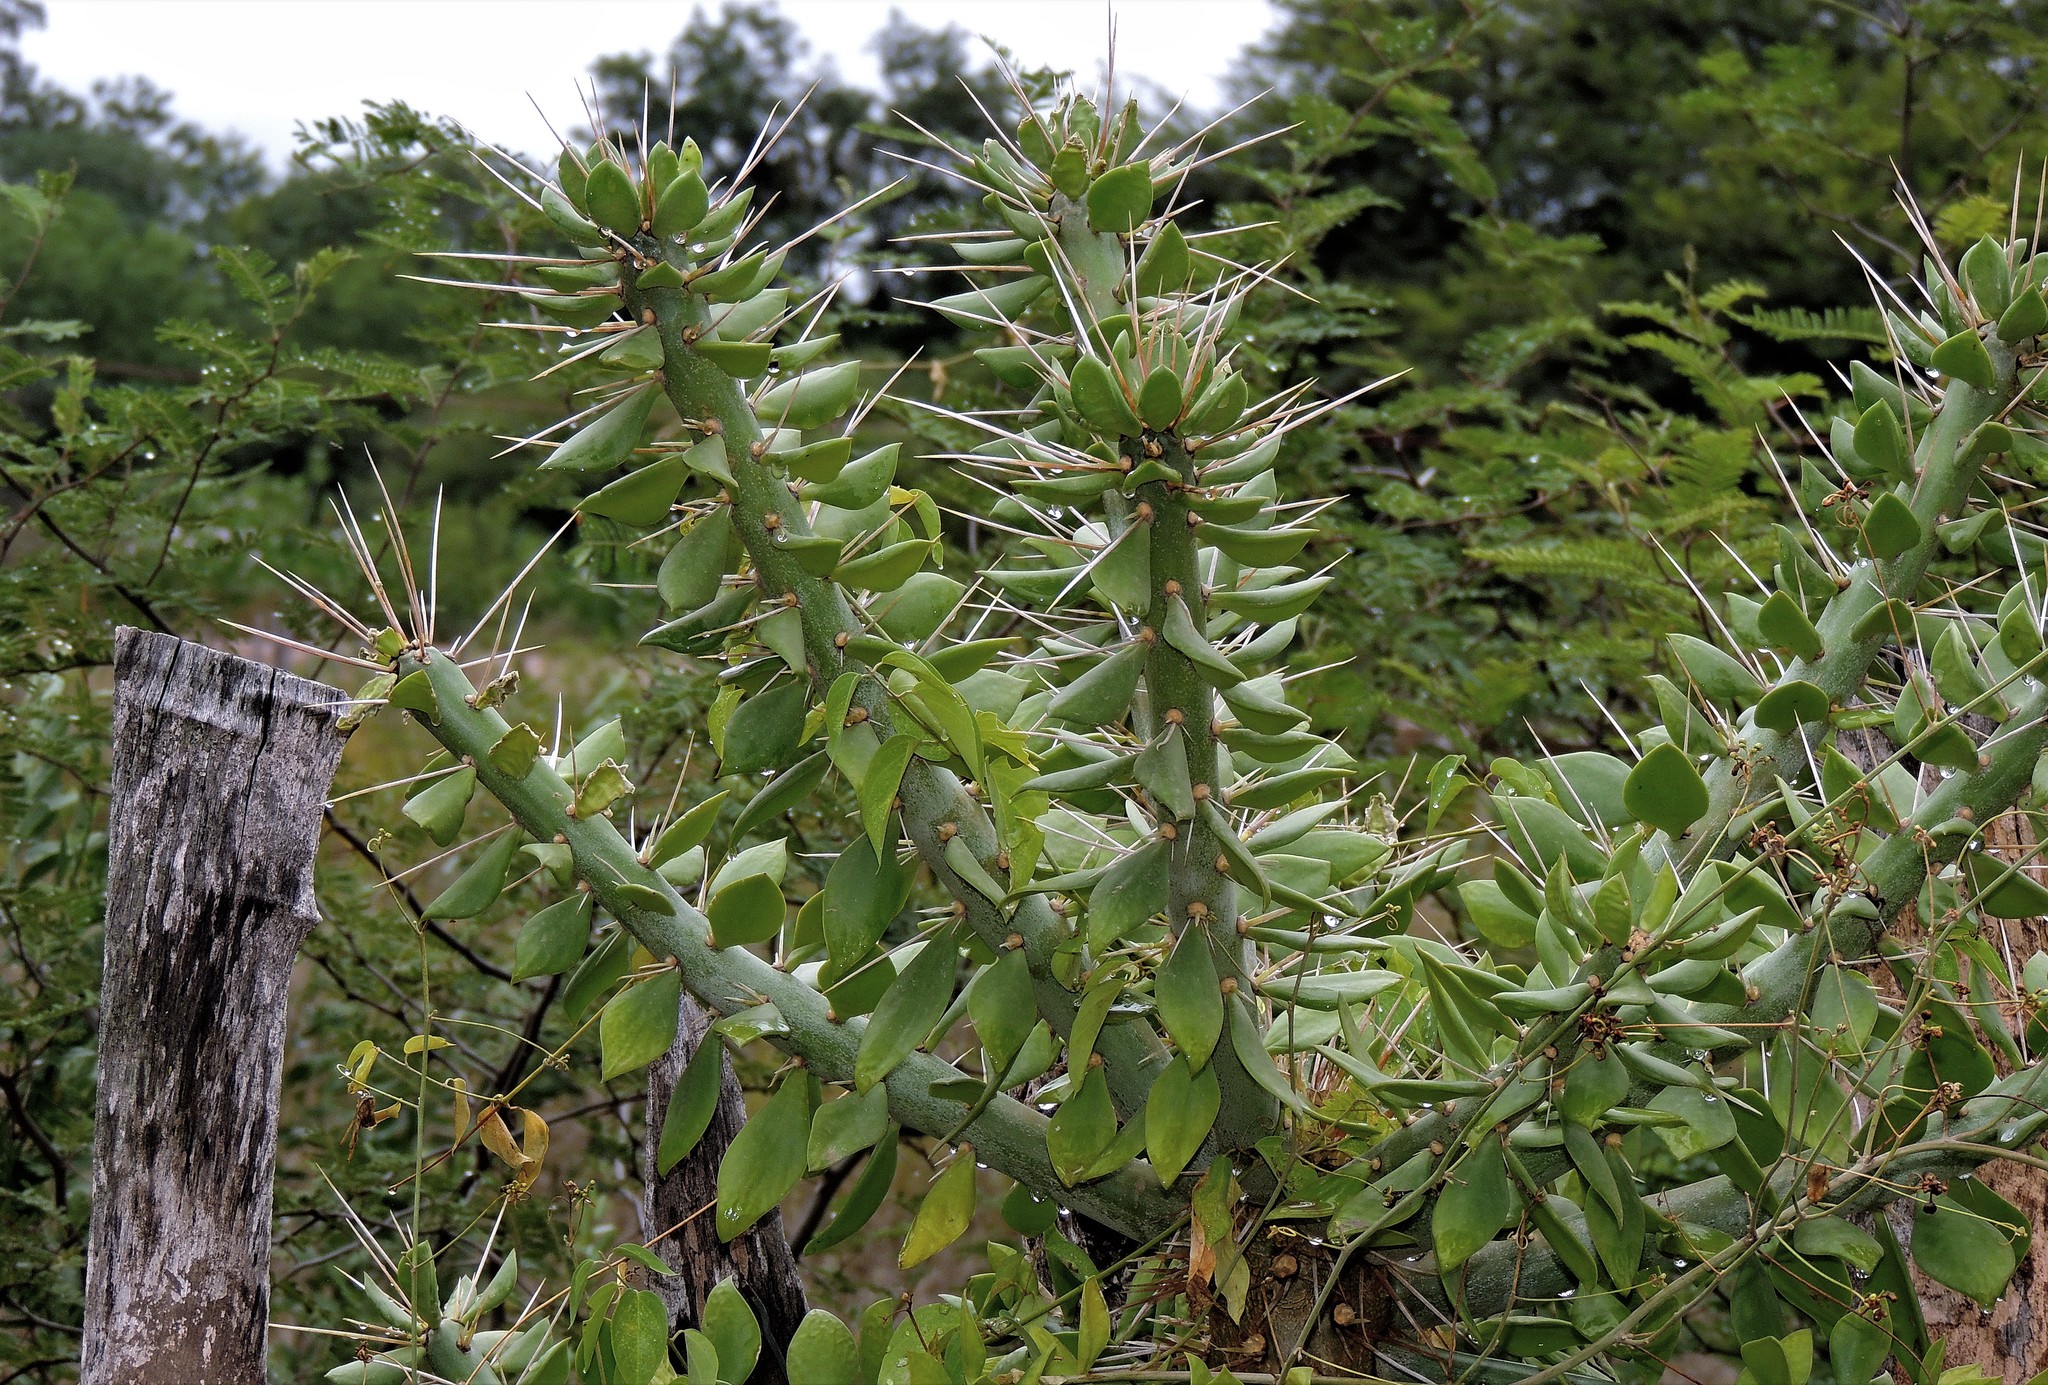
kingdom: Plantae
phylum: Tracheophyta
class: Magnoliopsida
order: Caryophyllales
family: Cactaceae
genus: Quiabentia
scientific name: Quiabentia verticillata
